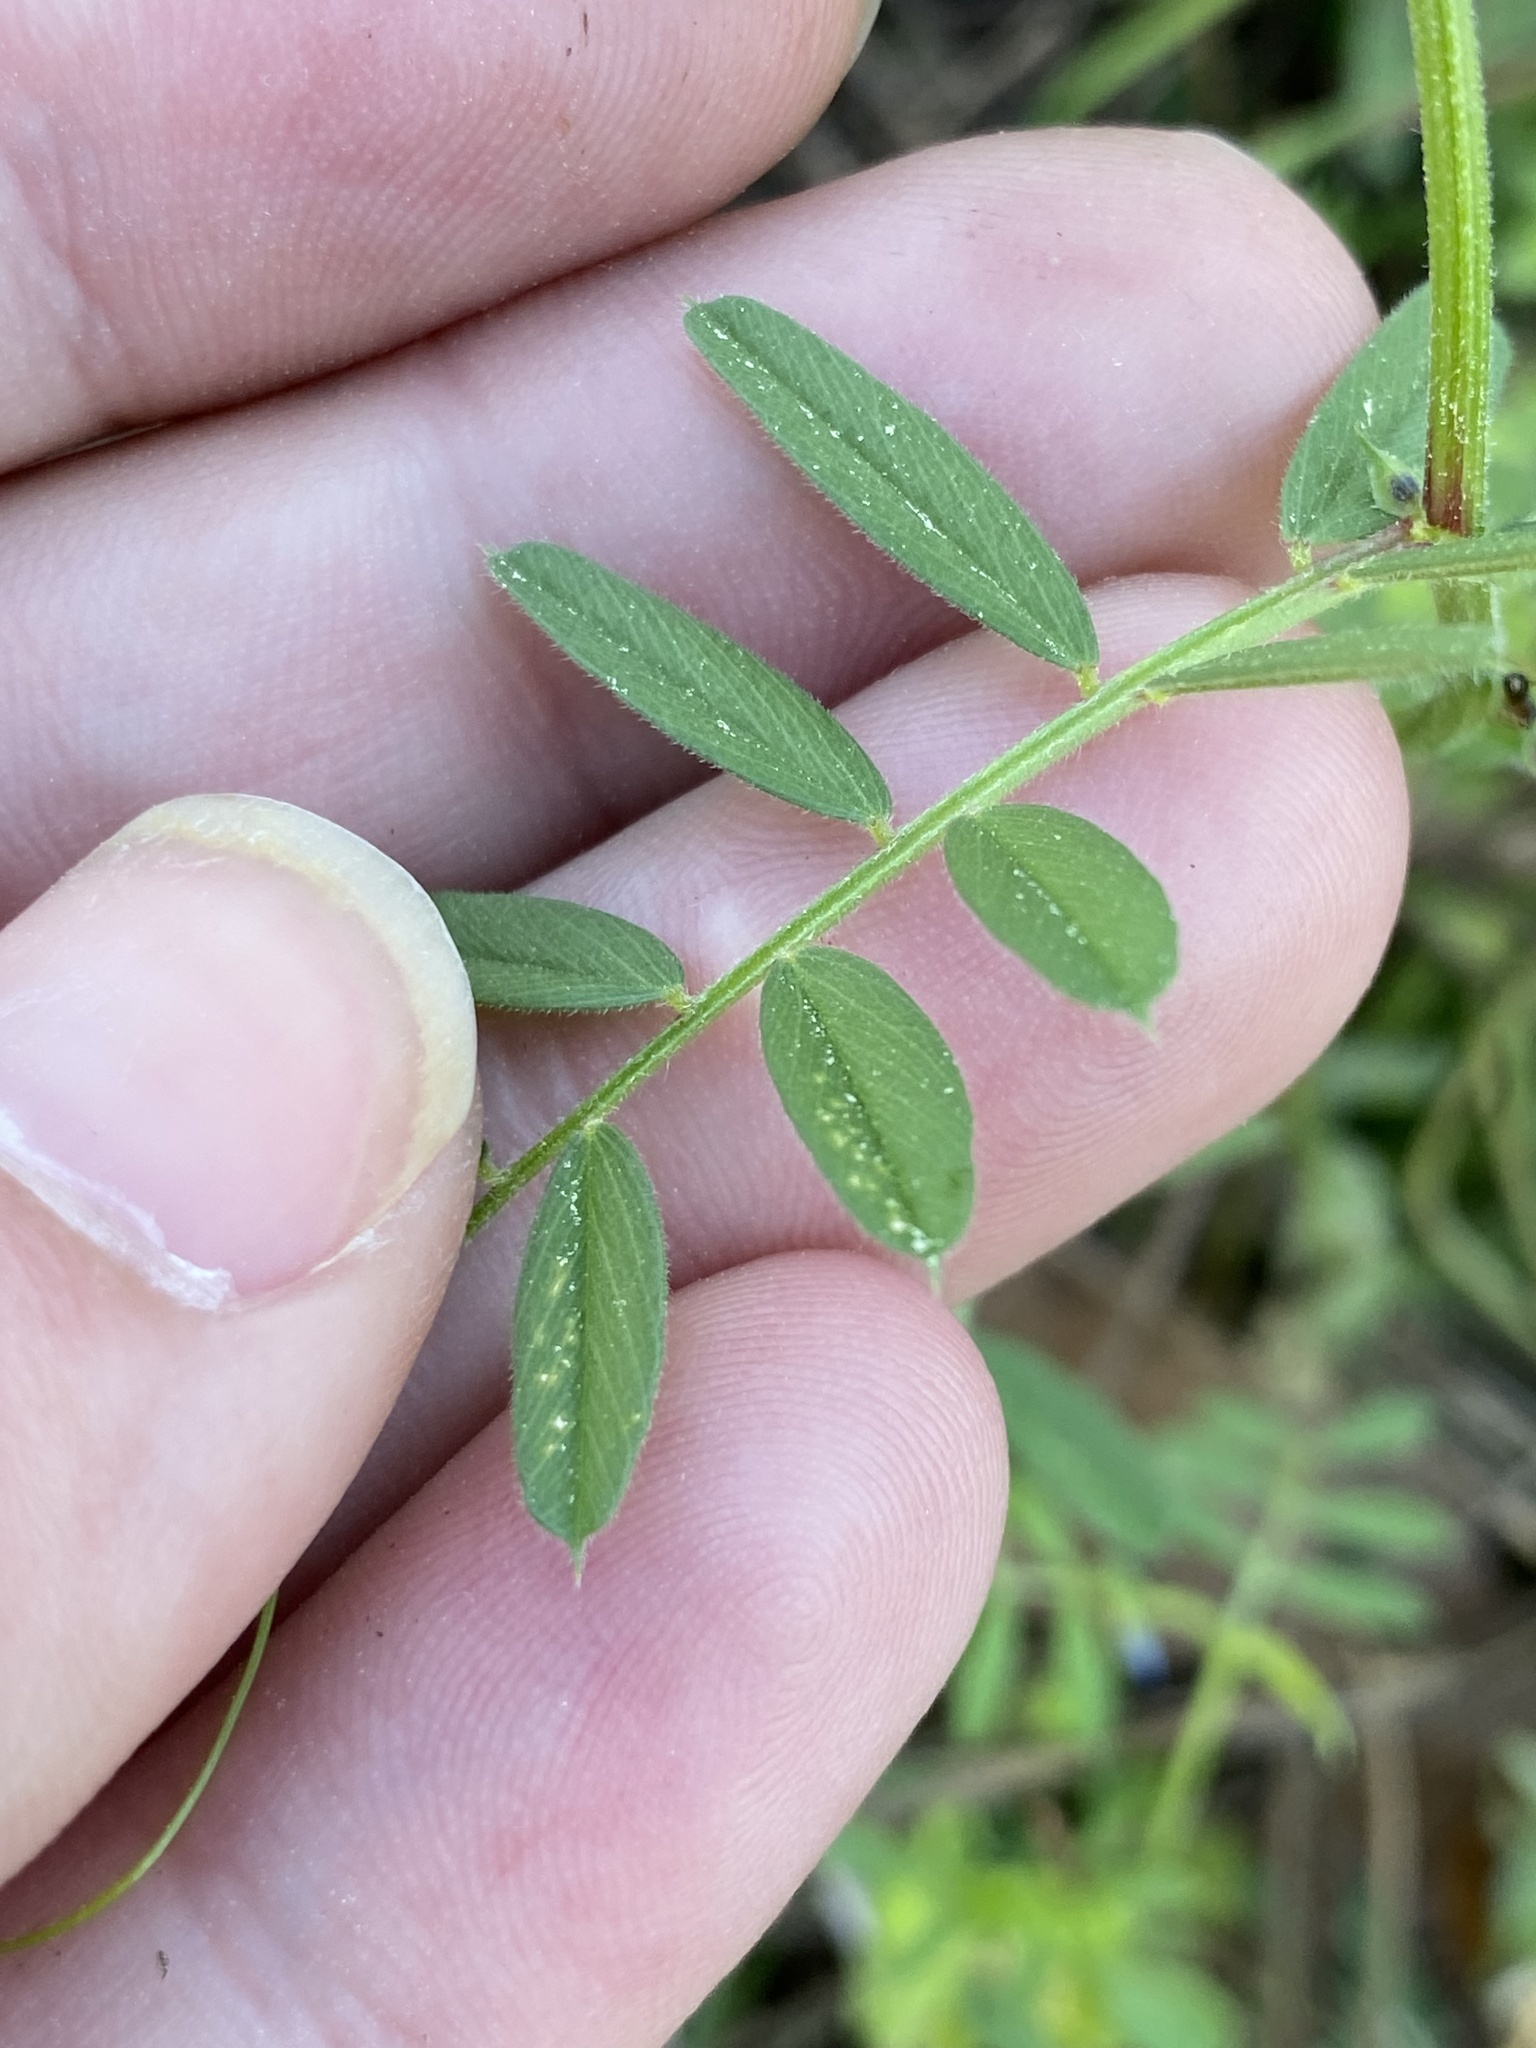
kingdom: Plantae
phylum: Tracheophyta
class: Magnoliopsida
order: Fabales
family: Fabaceae
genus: Vicia
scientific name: Vicia sativa
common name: Garden vetch
